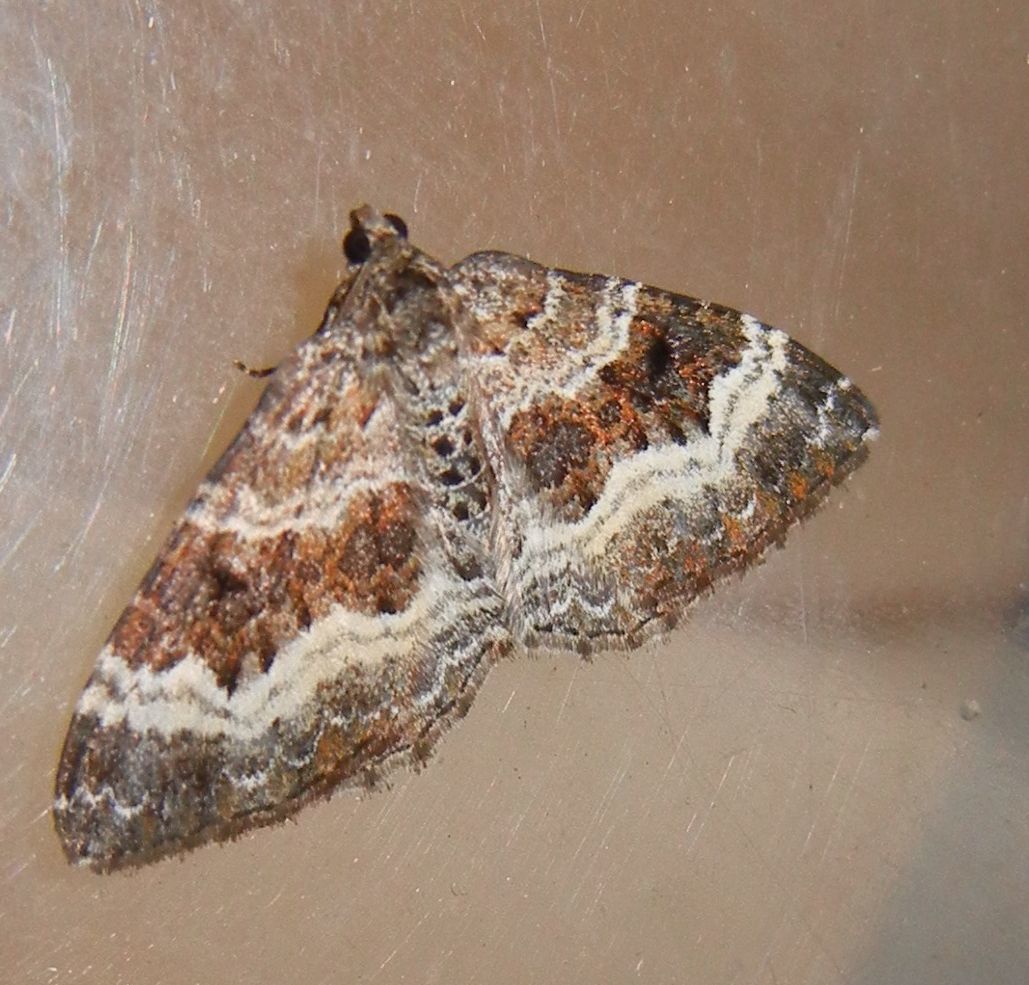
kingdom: Animalia
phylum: Arthropoda
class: Insecta
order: Lepidoptera
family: Geometridae
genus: Epirrhoe
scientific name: Epirrhoe alternata
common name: Common carpet
